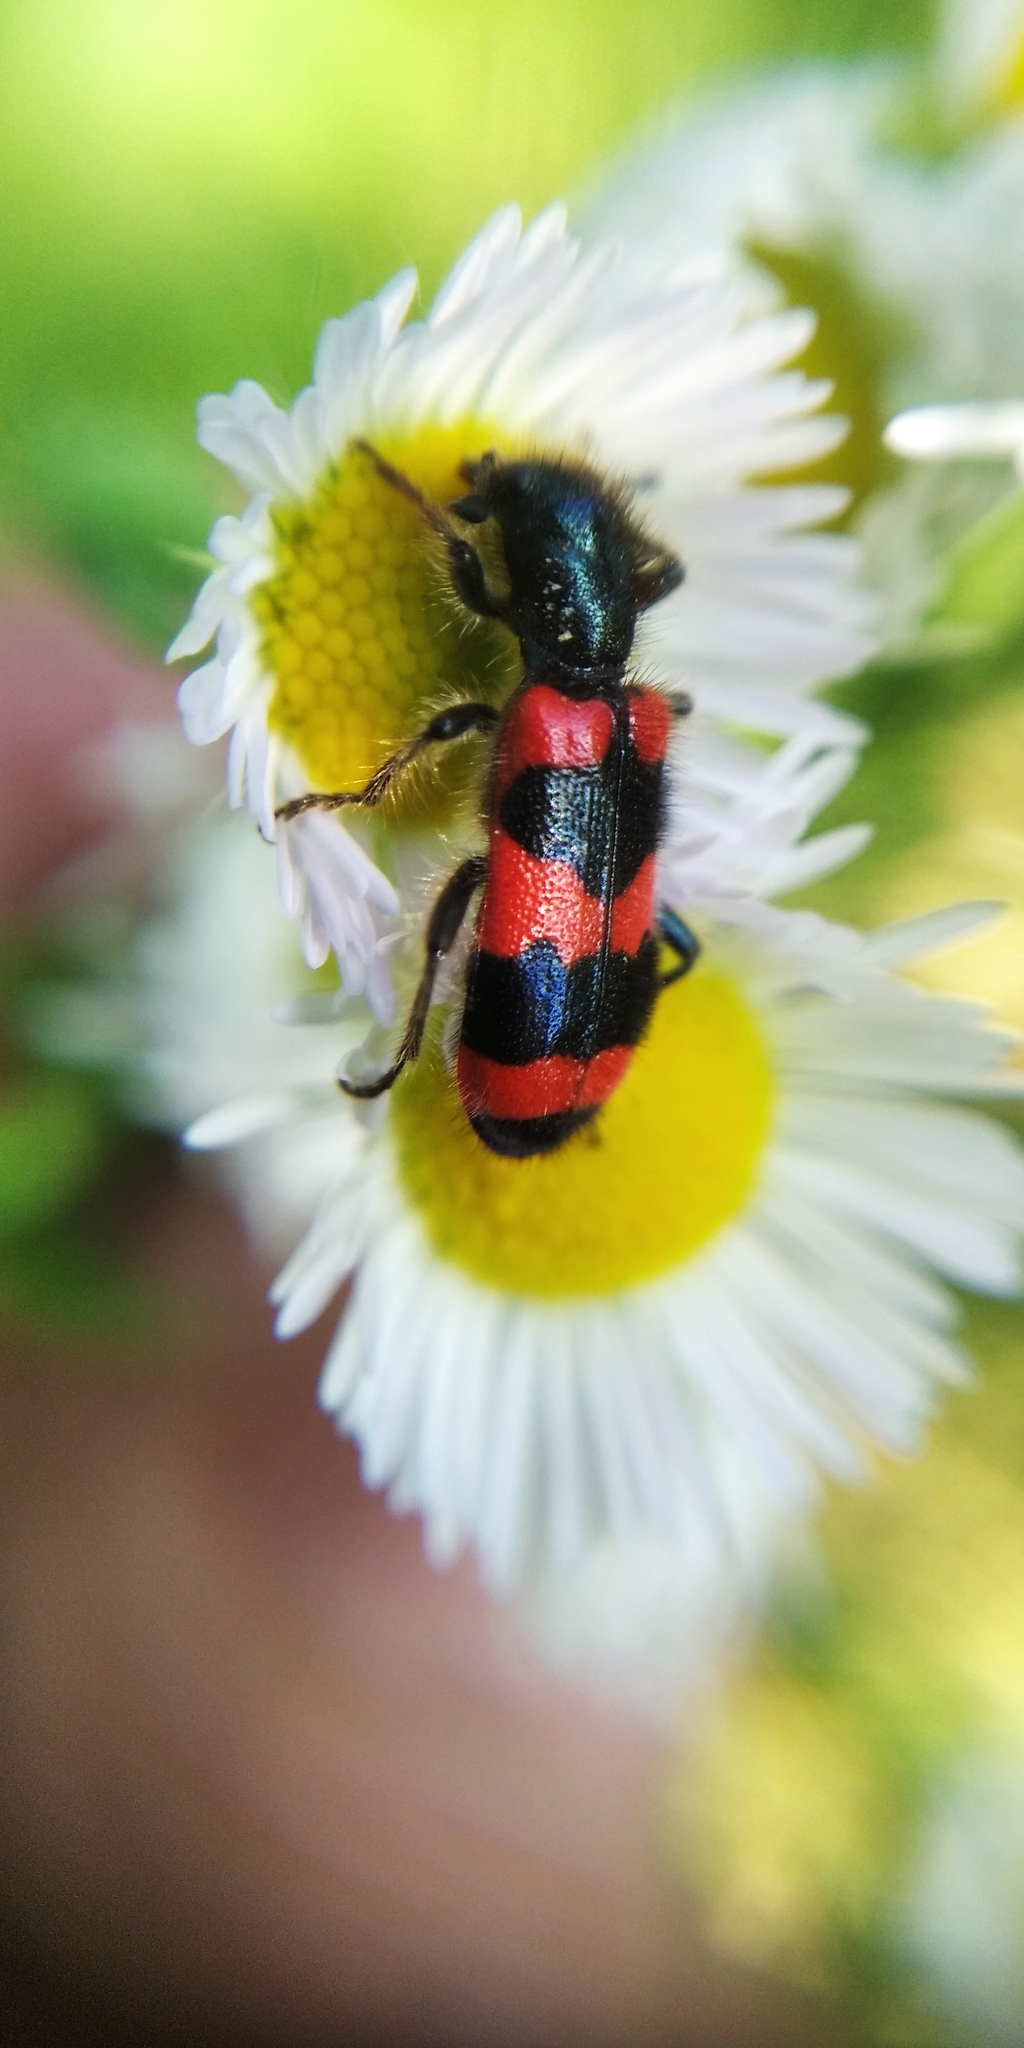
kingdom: Animalia
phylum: Arthropoda
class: Insecta
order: Coleoptera
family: Cleridae
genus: Trichodes
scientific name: Trichodes apiarius
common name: Bee-eating beetle
